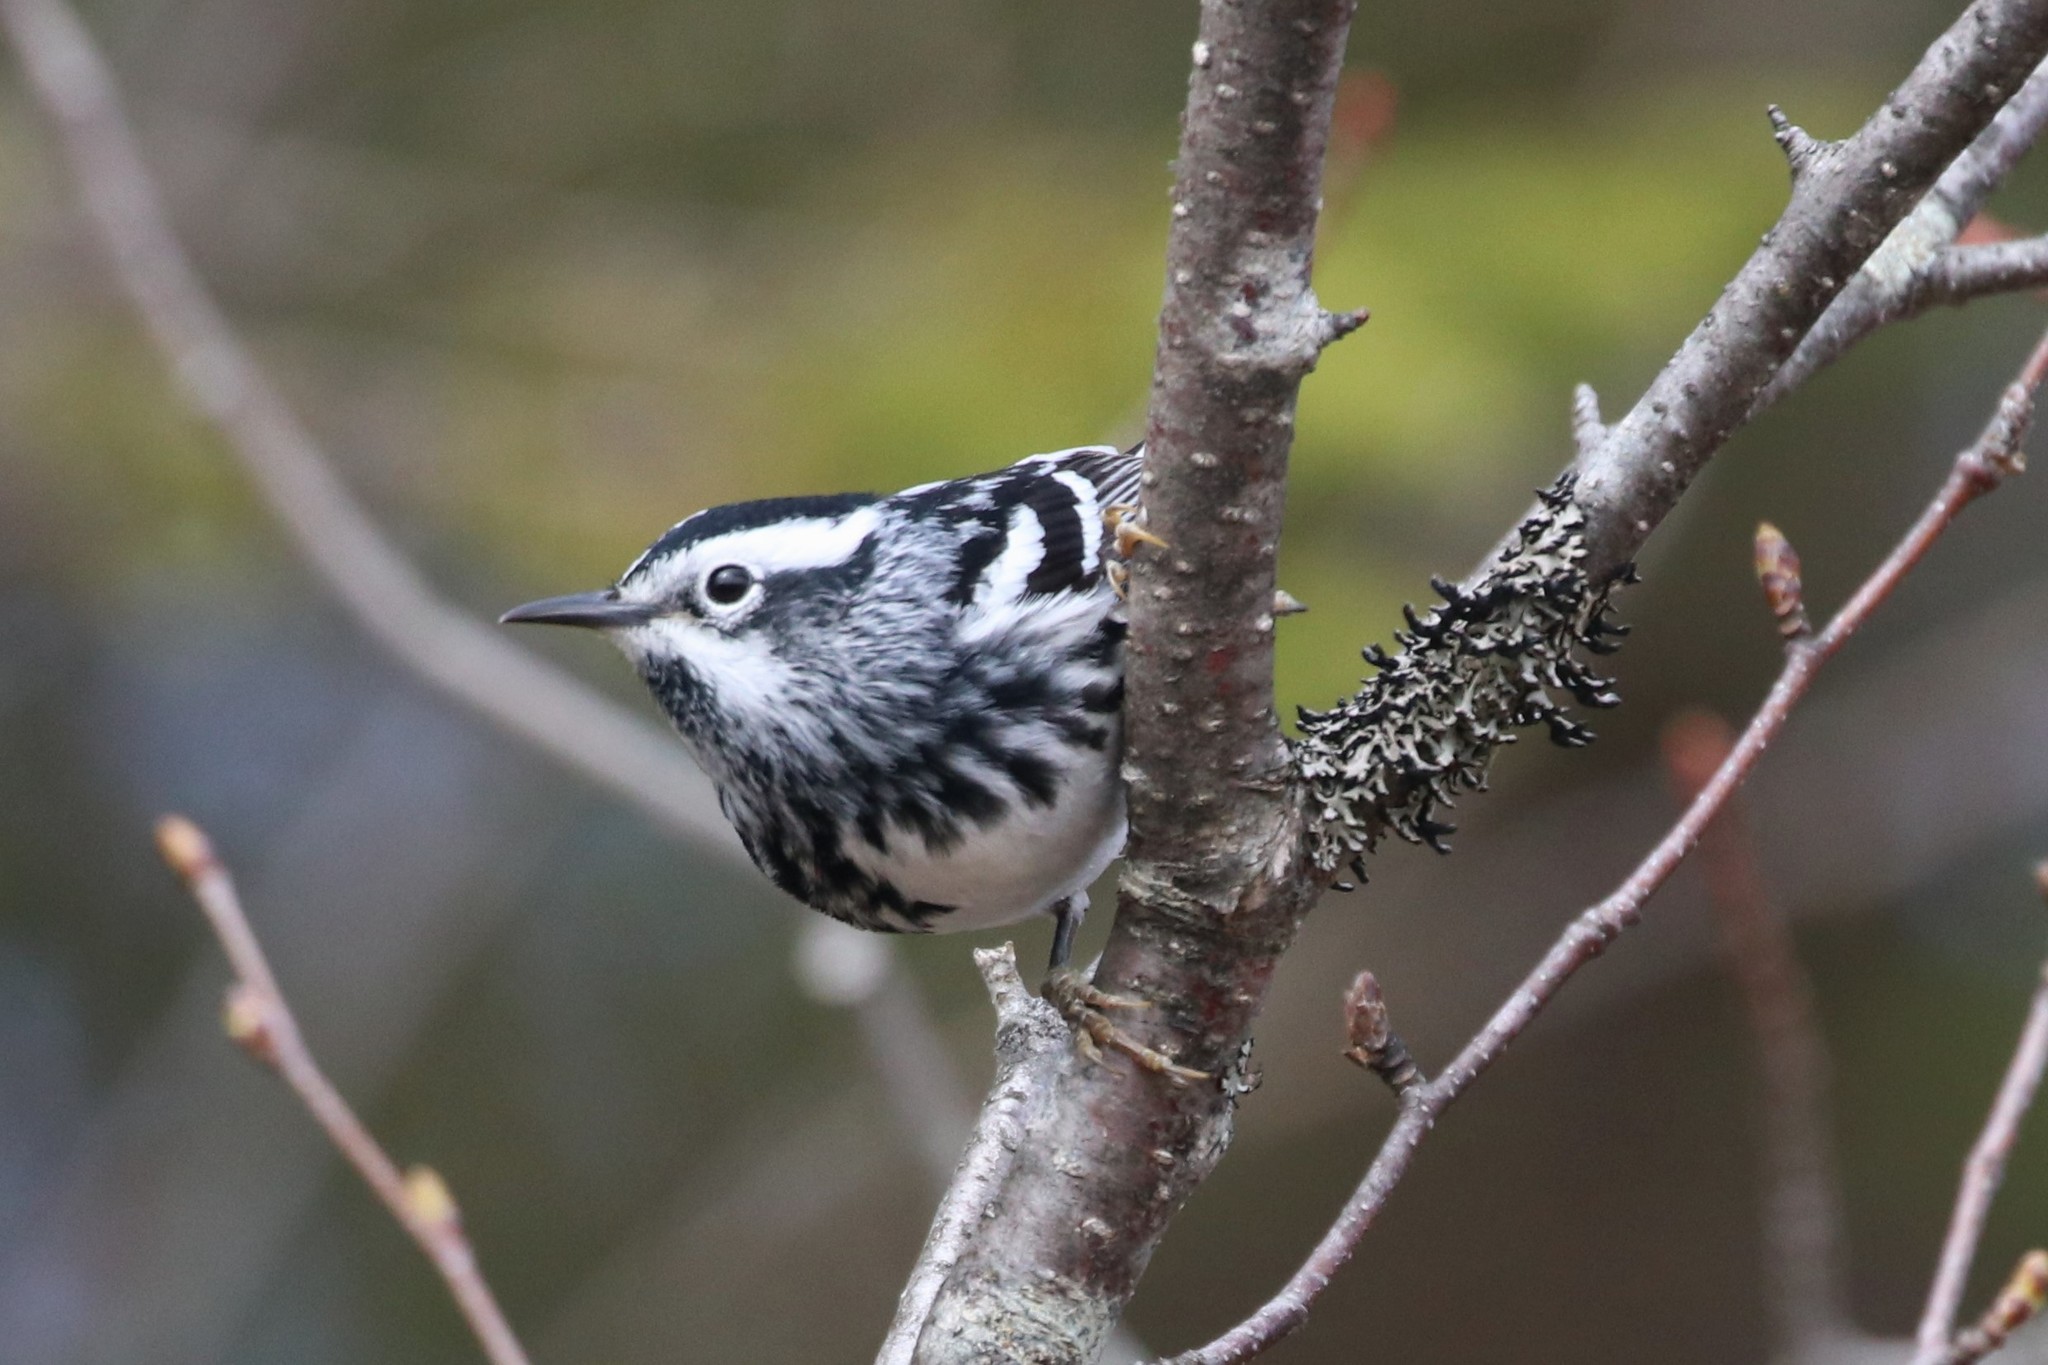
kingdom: Animalia
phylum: Chordata
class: Aves
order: Passeriformes
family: Parulidae
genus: Mniotilta
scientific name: Mniotilta varia
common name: Black-and-white warbler
